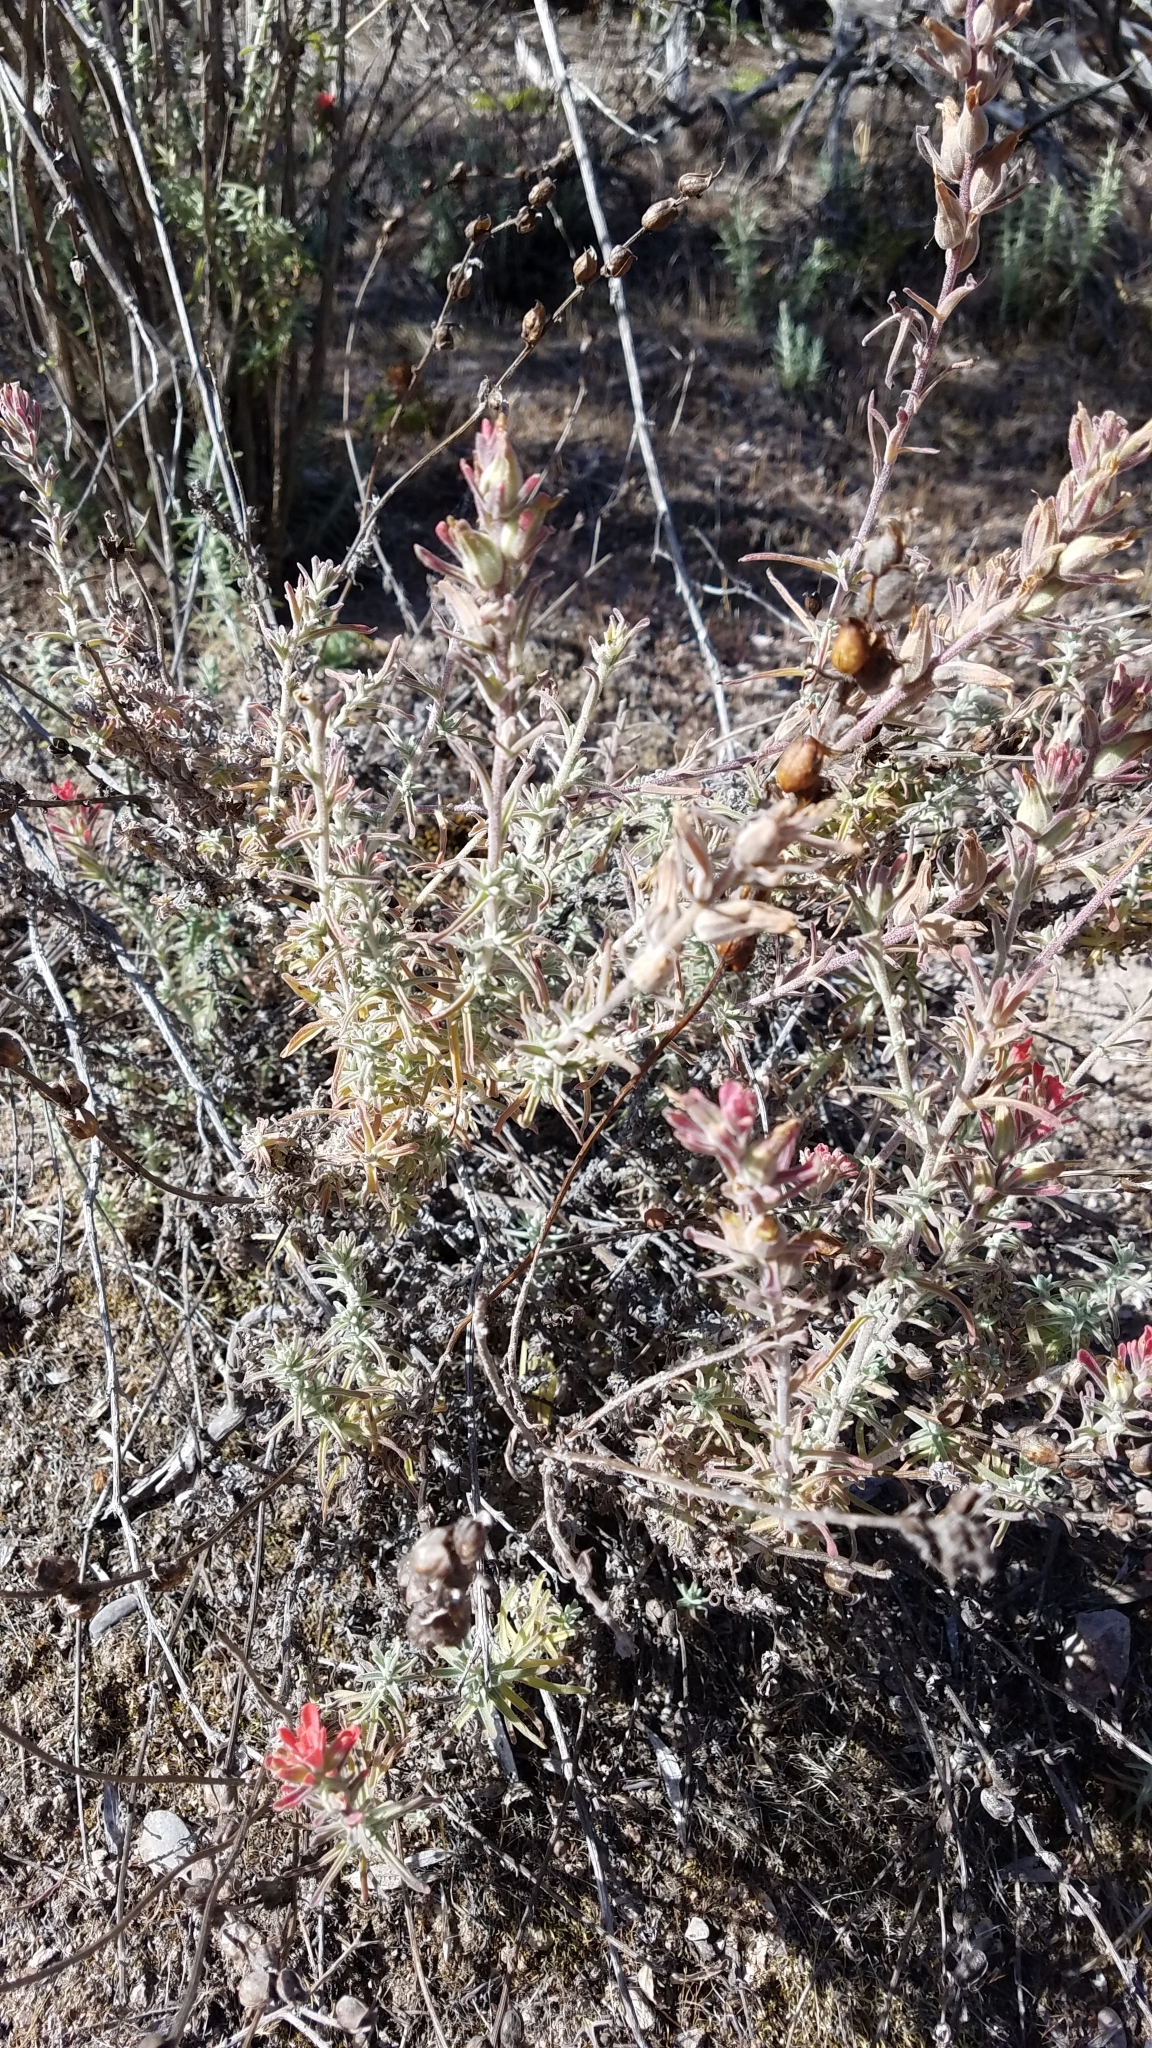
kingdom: Plantae
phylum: Tracheophyta
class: Magnoliopsida
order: Lamiales
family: Orobanchaceae
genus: Castilleja
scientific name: Castilleja foliolosa
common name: Woolly indian paintbrush
